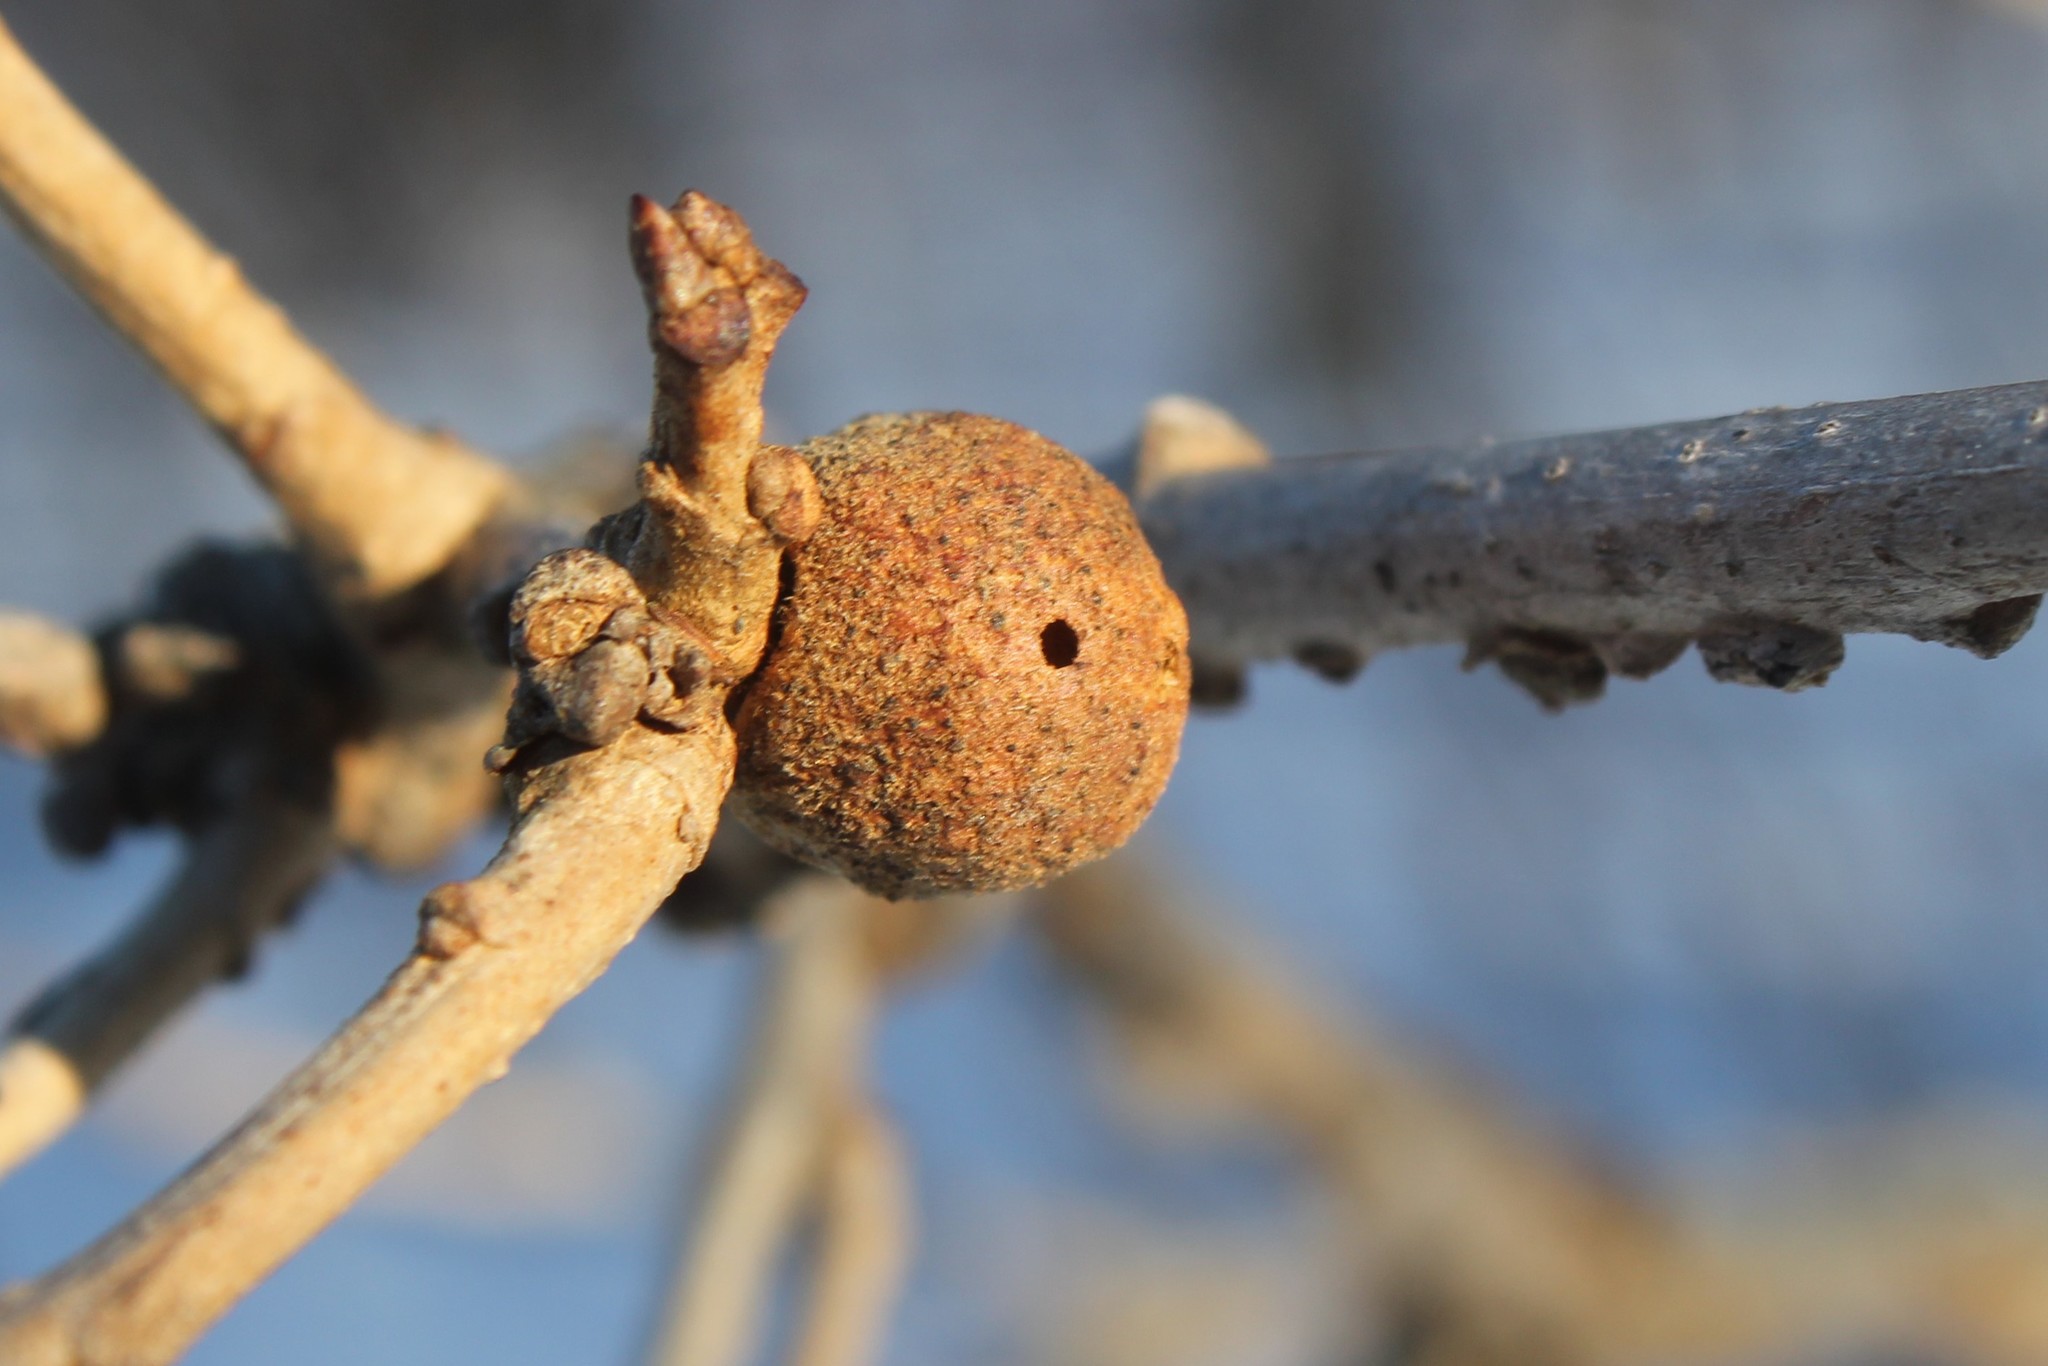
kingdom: Animalia
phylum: Arthropoda
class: Insecta
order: Hymenoptera
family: Cynipidae
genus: Disholcaspis
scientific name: Disholcaspis
